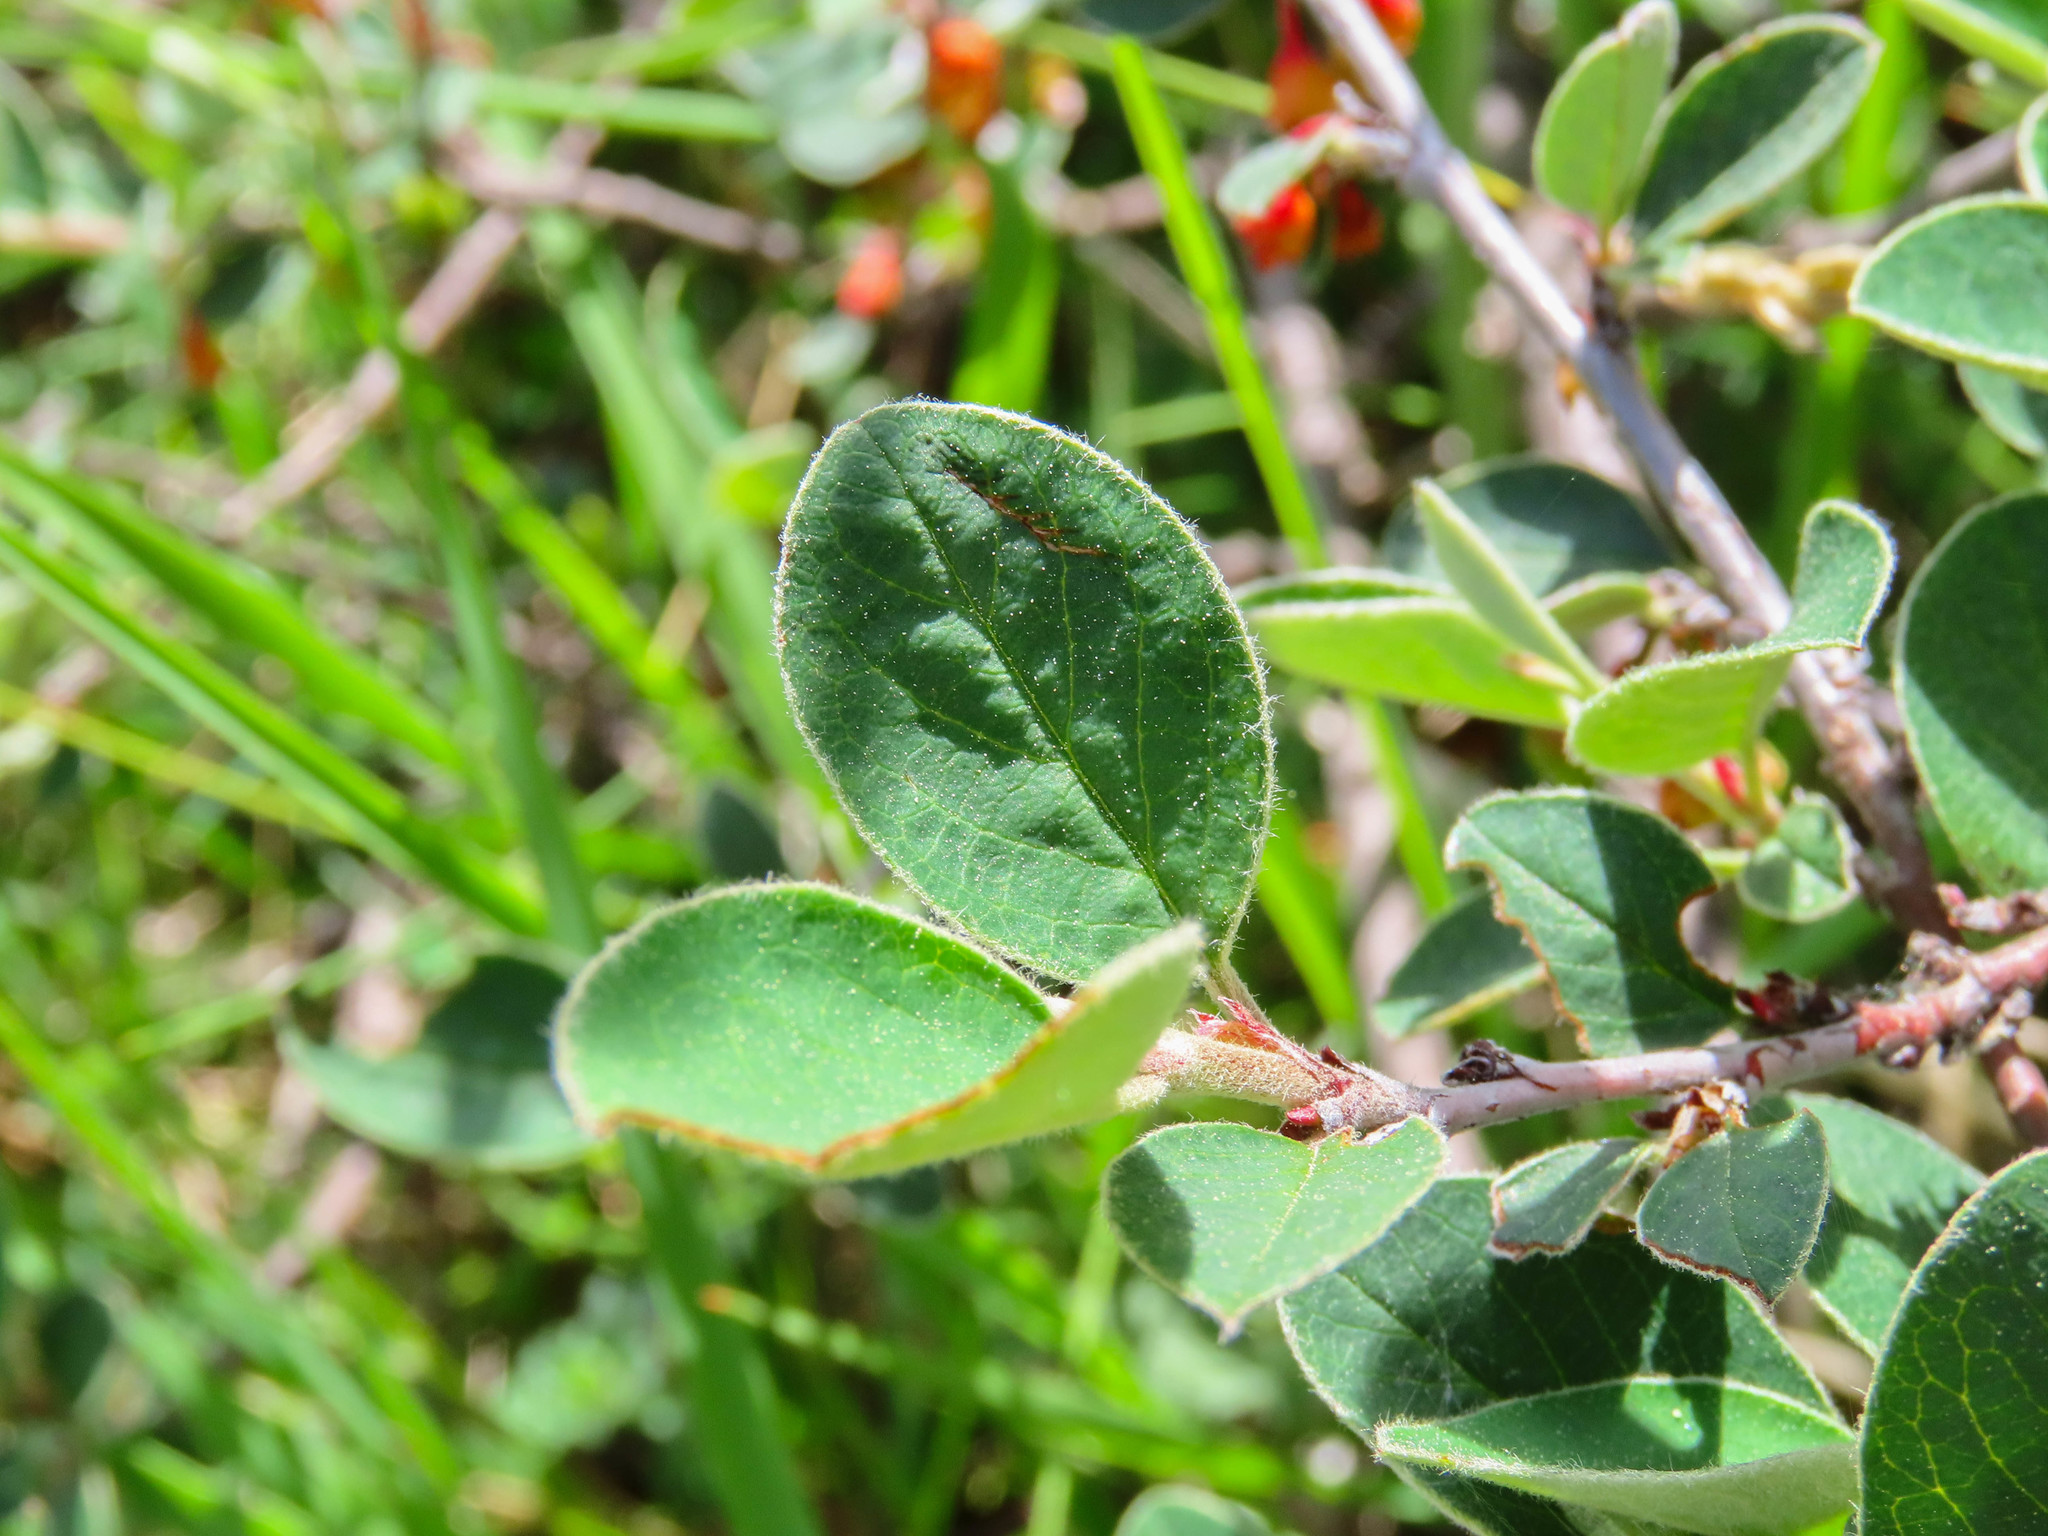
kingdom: Plantae
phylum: Tracheophyta
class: Magnoliopsida
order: Rosales
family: Rosaceae
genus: Cotoneaster
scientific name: Cotoneaster integerrimus
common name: Wild cotoneaster
